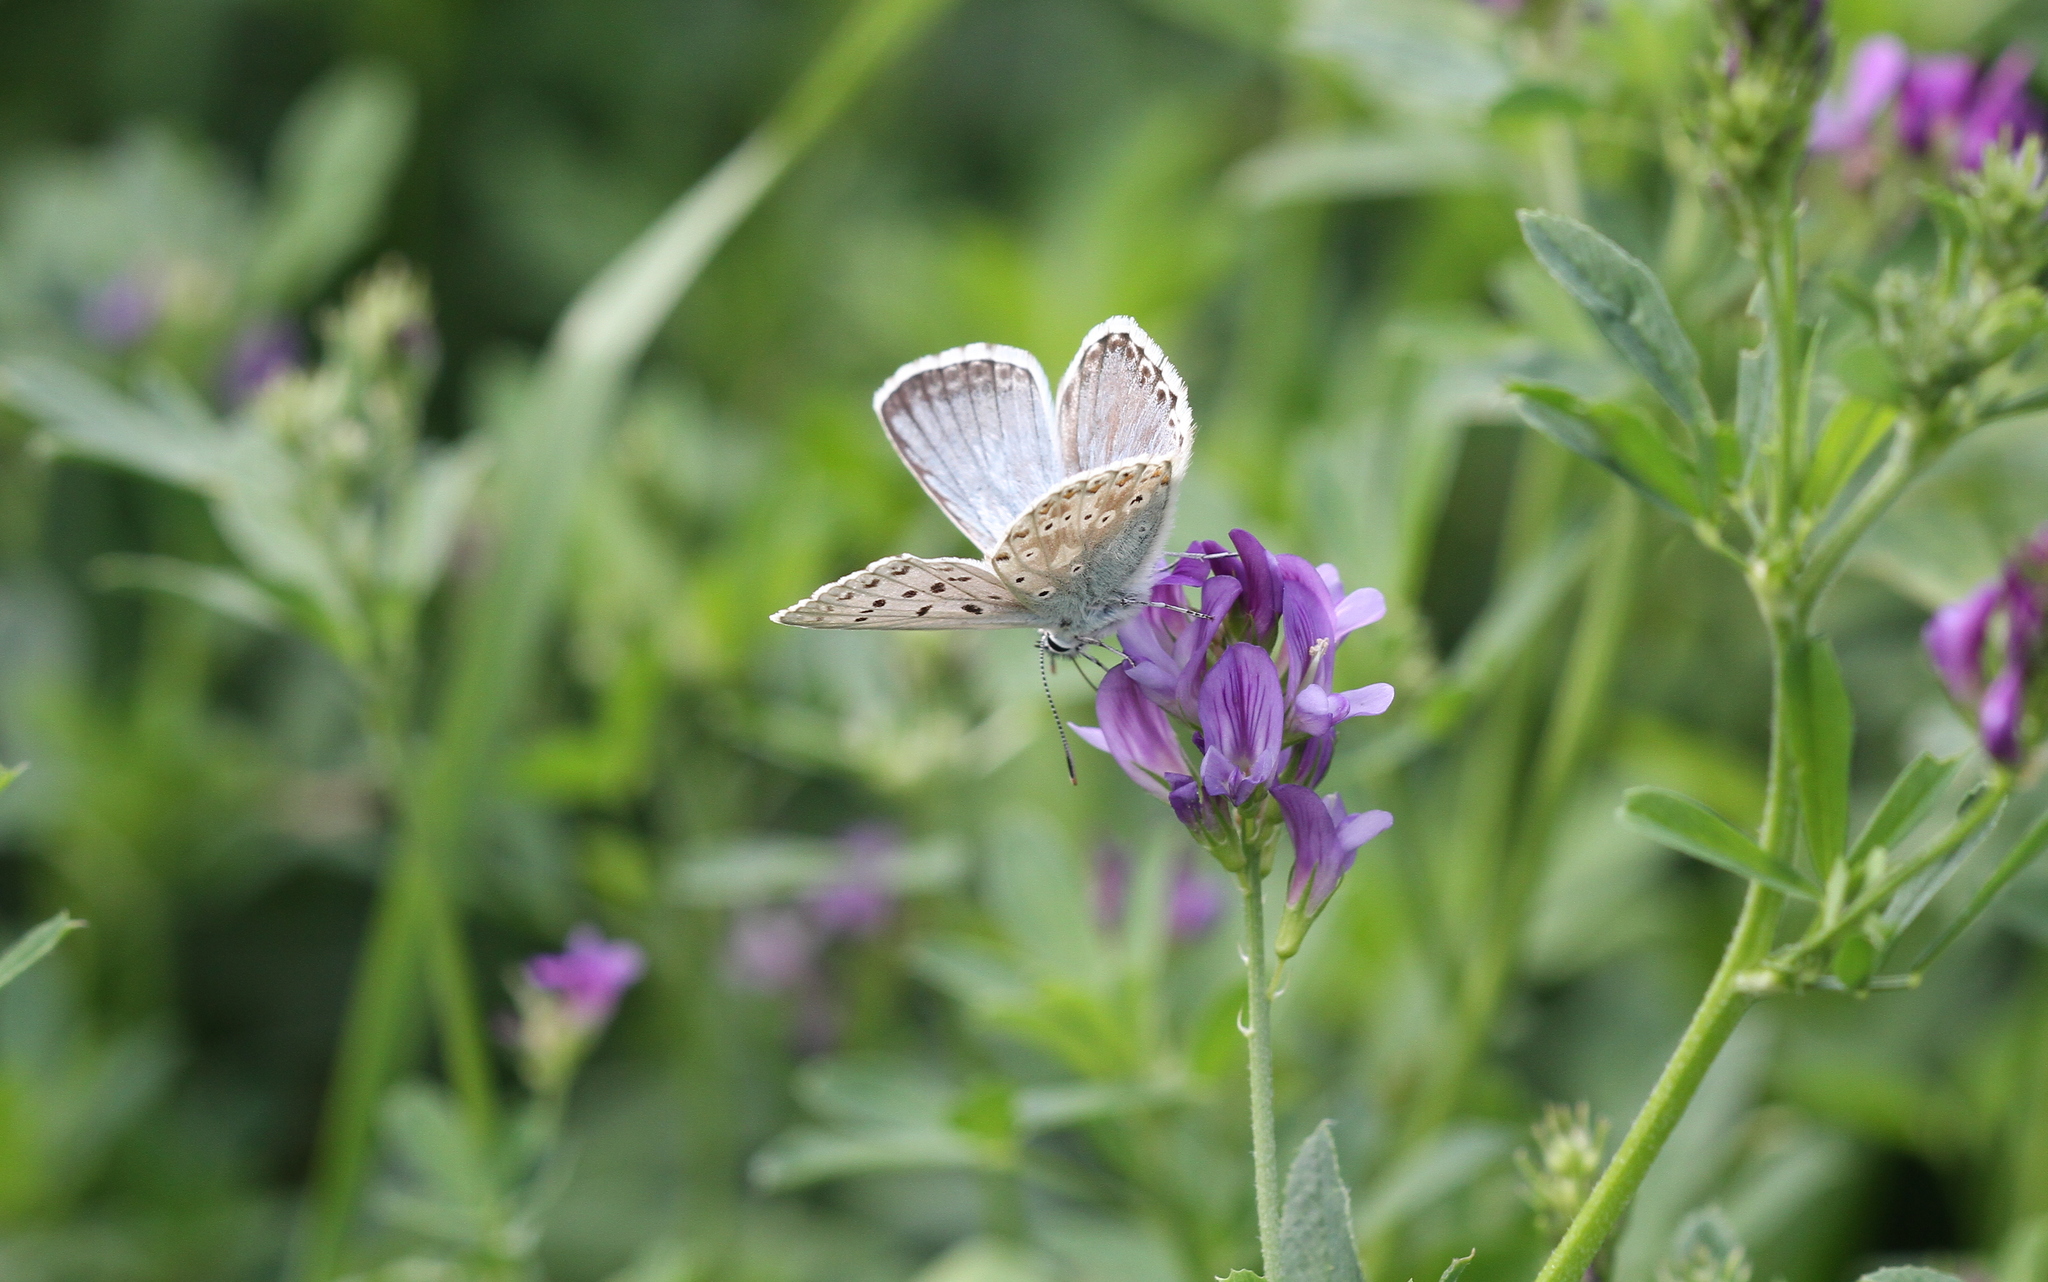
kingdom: Animalia
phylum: Arthropoda
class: Insecta
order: Lepidoptera
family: Lycaenidae
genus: Lysandra
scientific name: Lysandra coridon
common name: Chalkhill blue
